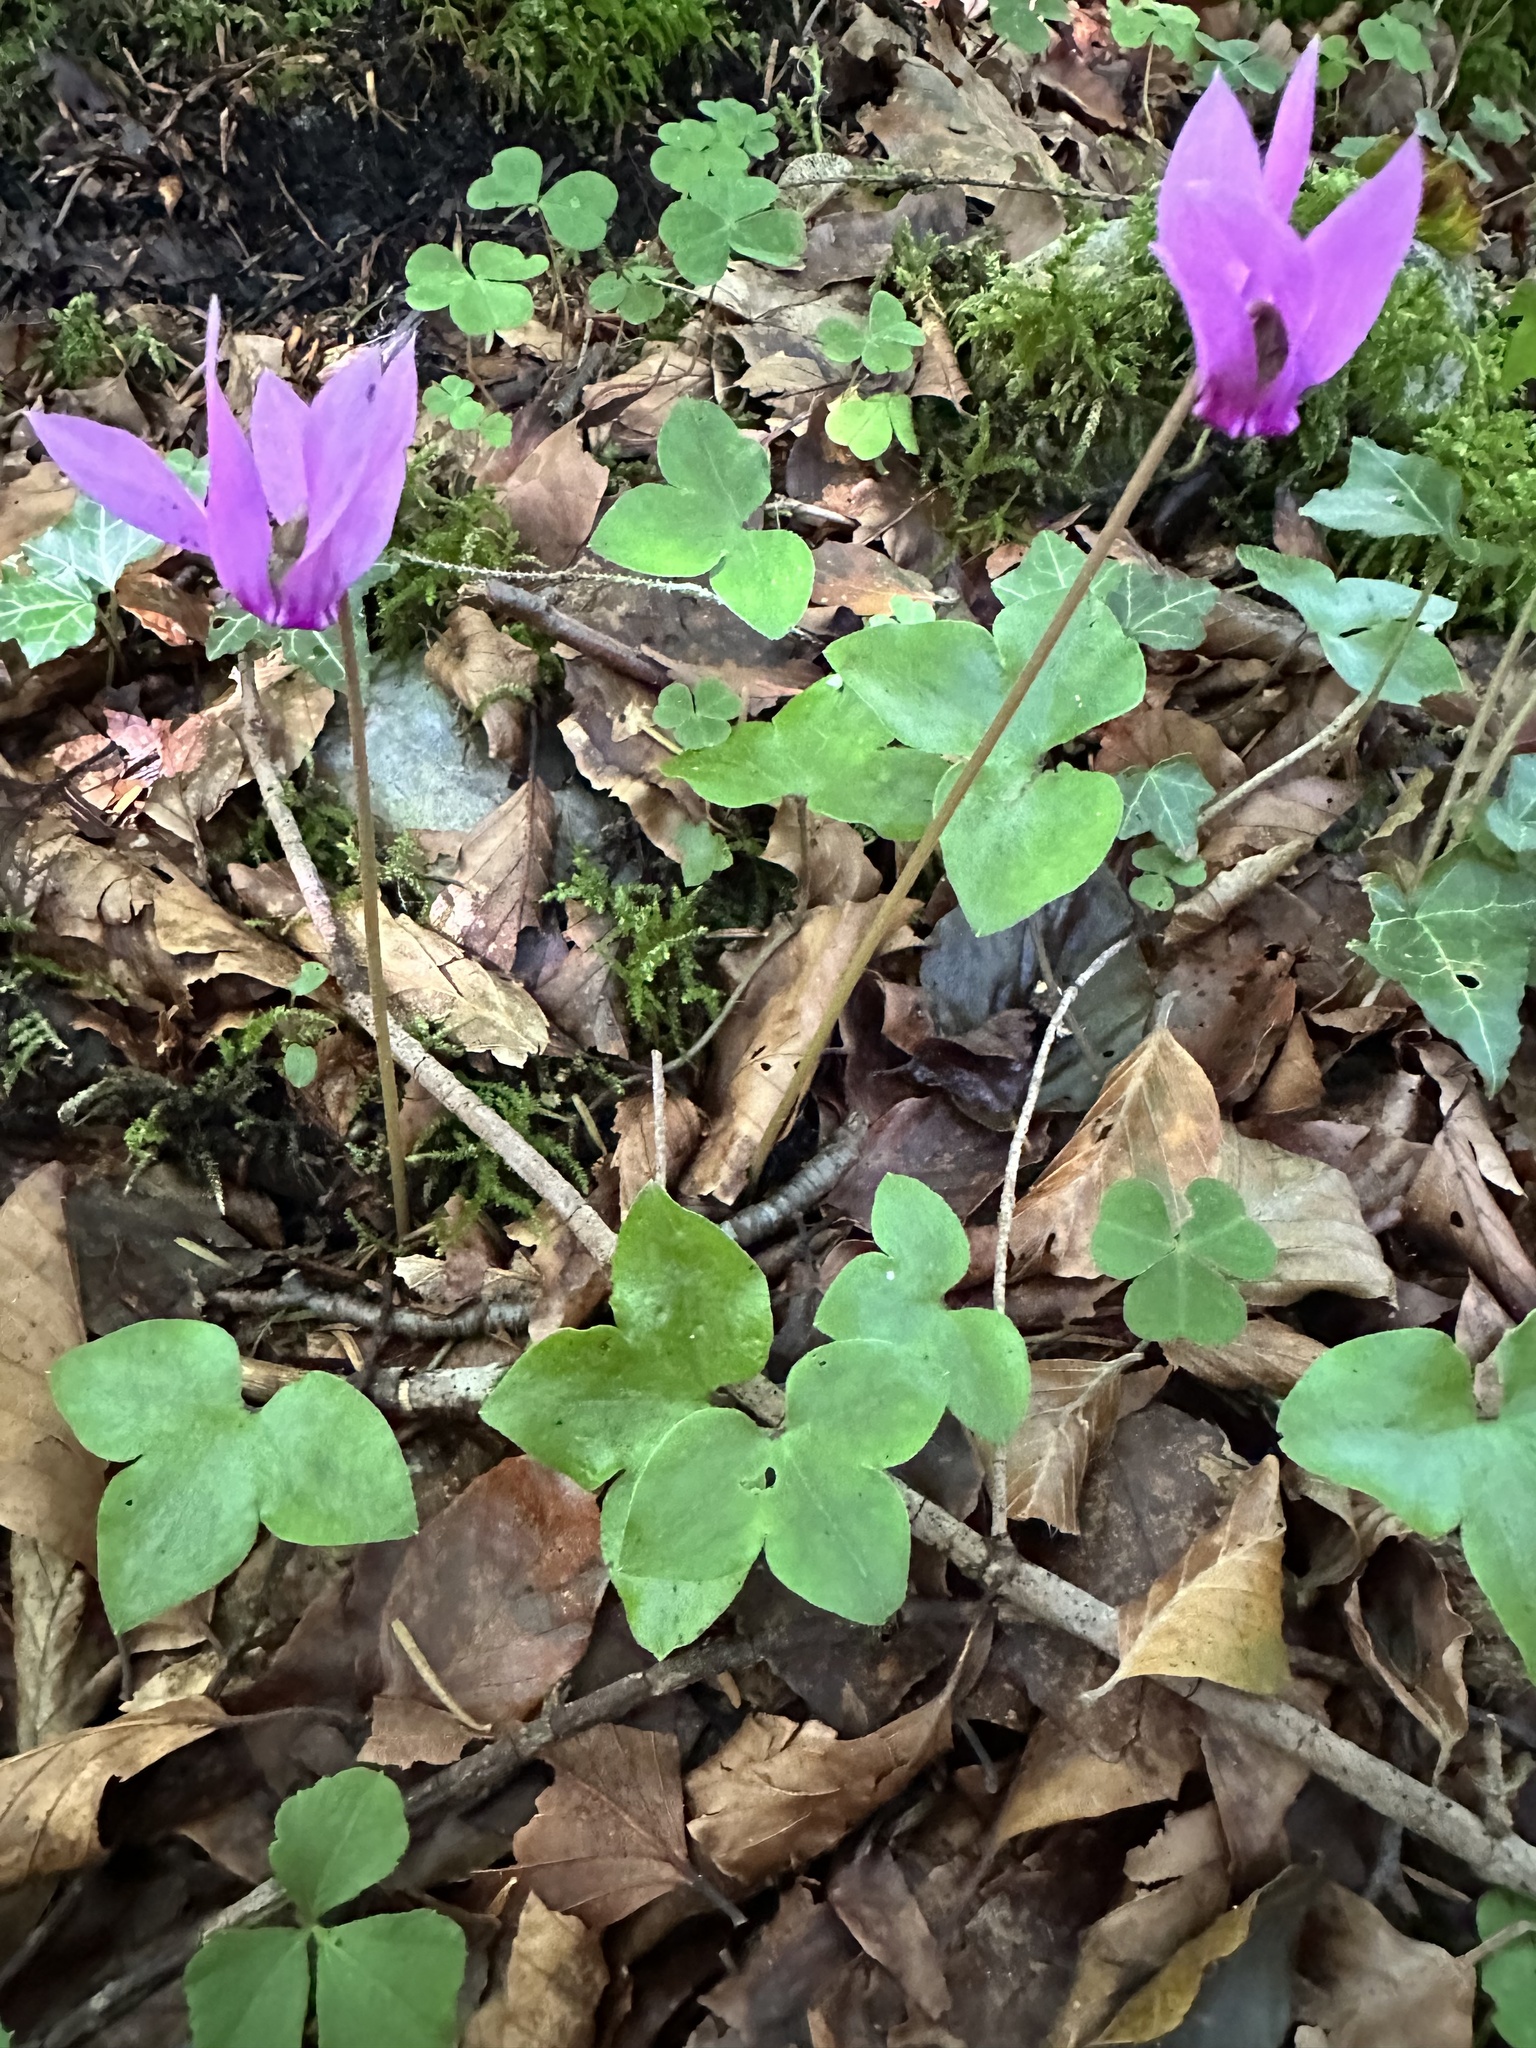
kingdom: Plantae
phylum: Tracheophyta
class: Magnoliopsida
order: Ericales
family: Primulaceae
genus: Cyclamen
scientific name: Cyclamen purpurascens
